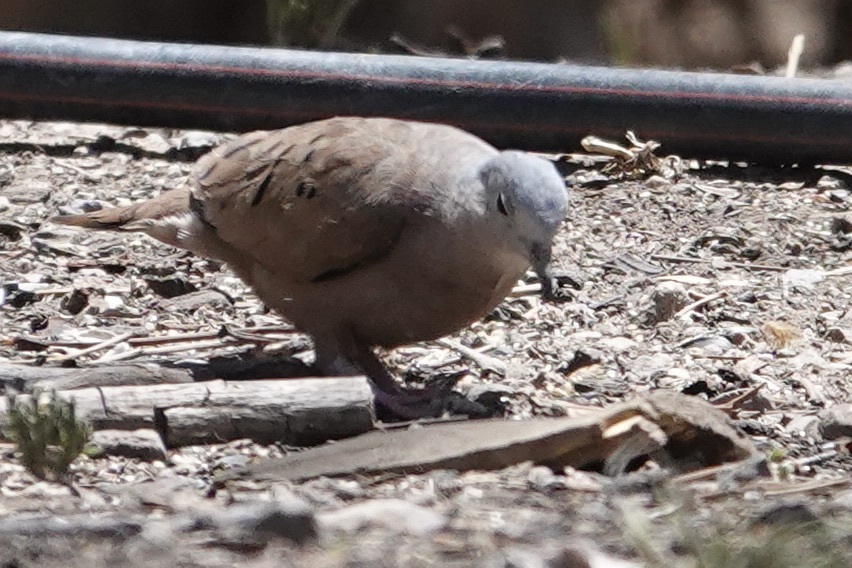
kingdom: Animalia
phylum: Chordata
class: Aves
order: Columbiformes
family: Columbidae
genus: Columbina
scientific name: Columbina talpacoti
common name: Ruddy ground dove
